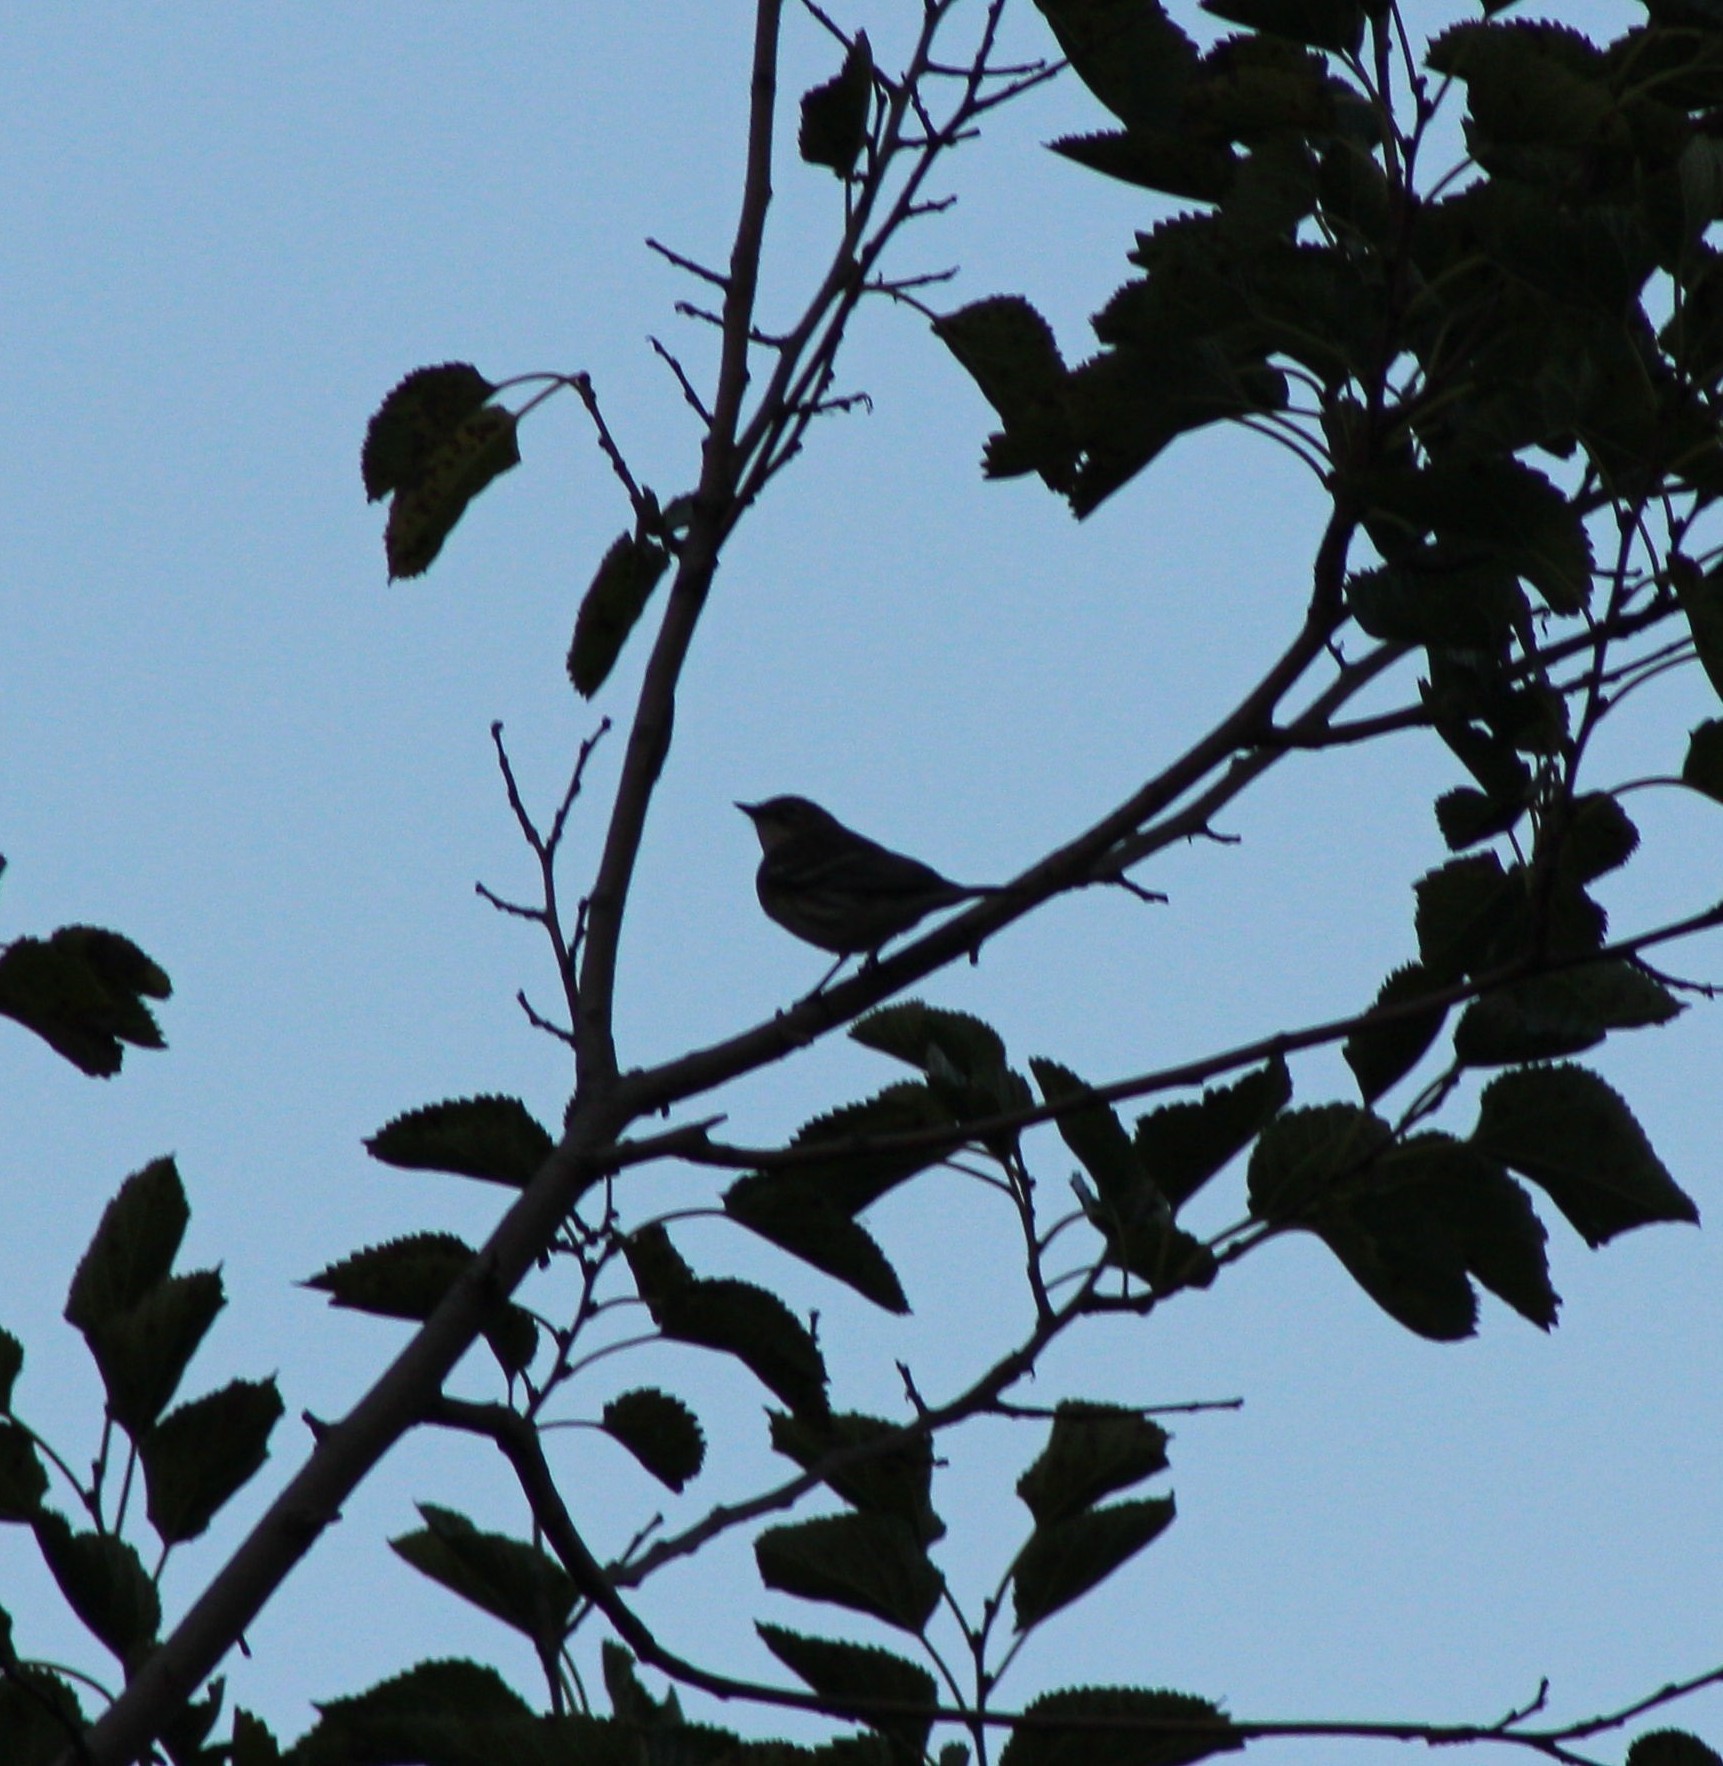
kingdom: Animalia
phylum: Chordata
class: Aves
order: Passeriformes
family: Parulidae
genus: Setophaga
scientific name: Setophaga coronata
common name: Myrtle warbler
